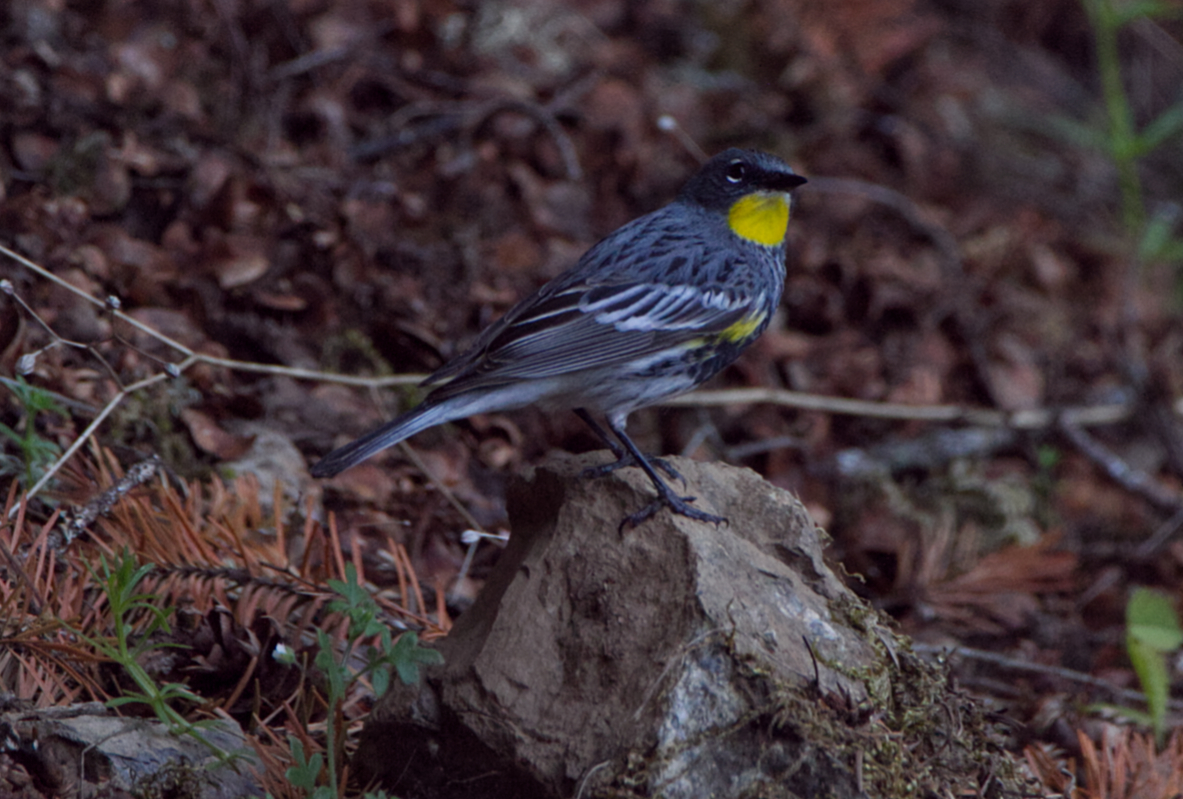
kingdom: Animalia
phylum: Chordata
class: Aves
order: Passeriformes
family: Parulidae
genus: Setophaga
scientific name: Setophaga coronata
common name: Myrtle warbler
